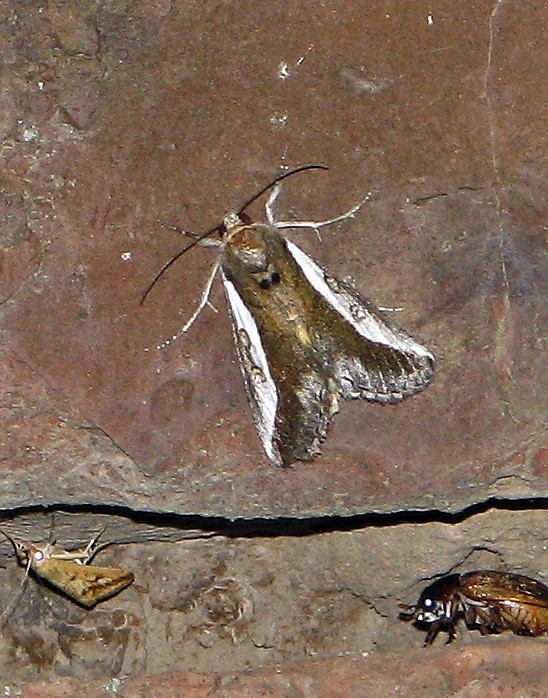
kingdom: Animalia
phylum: Arthropoda
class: Insecta
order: Lepidoptera
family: Noctuidae
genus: Neotuerta
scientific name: Neotuerta platensis
